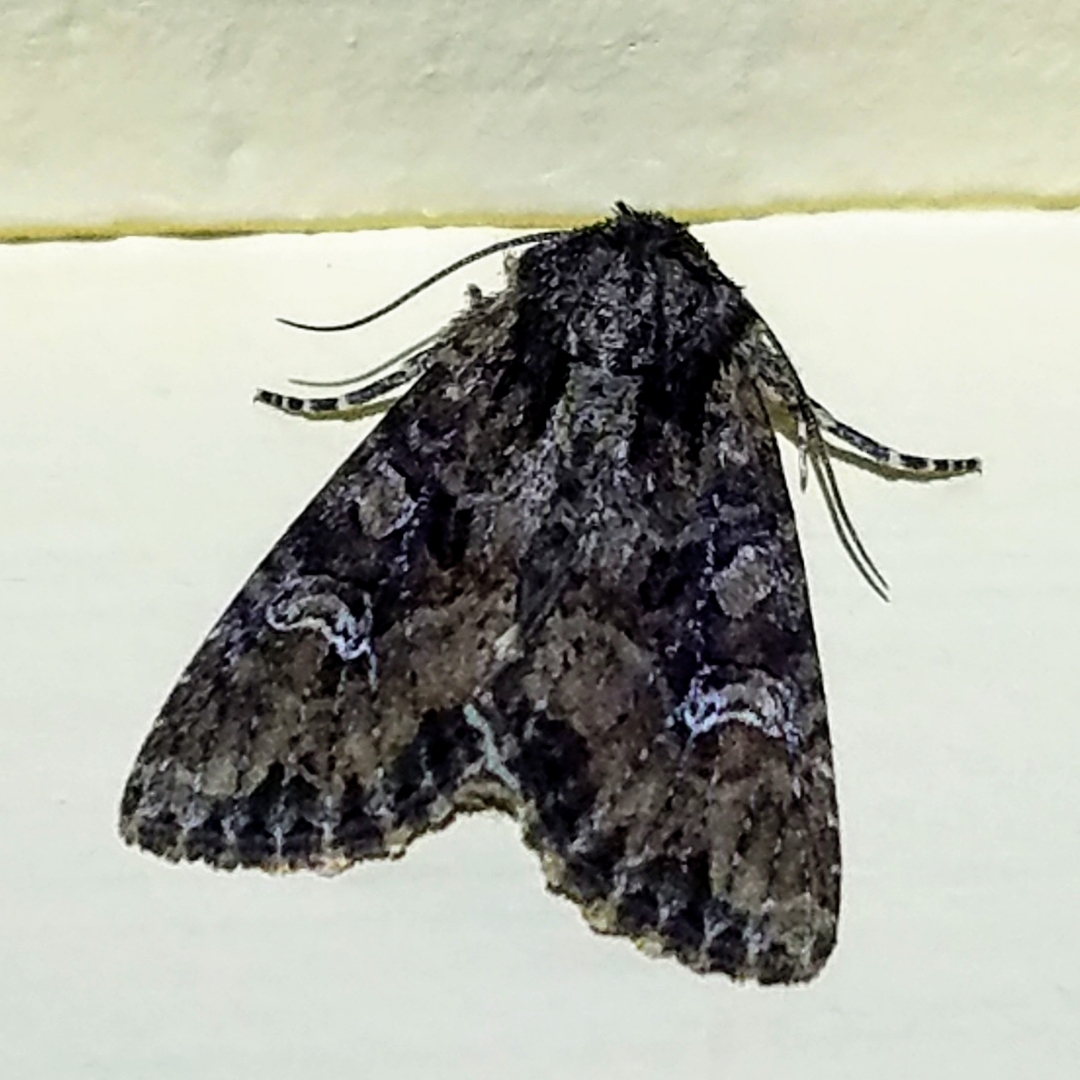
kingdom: Animalia
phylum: Arthropoda
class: Insecta
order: Lepidoptera
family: Noctuidae
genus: Apamea
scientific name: Apamea unanimis
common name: Small clouded brindle
